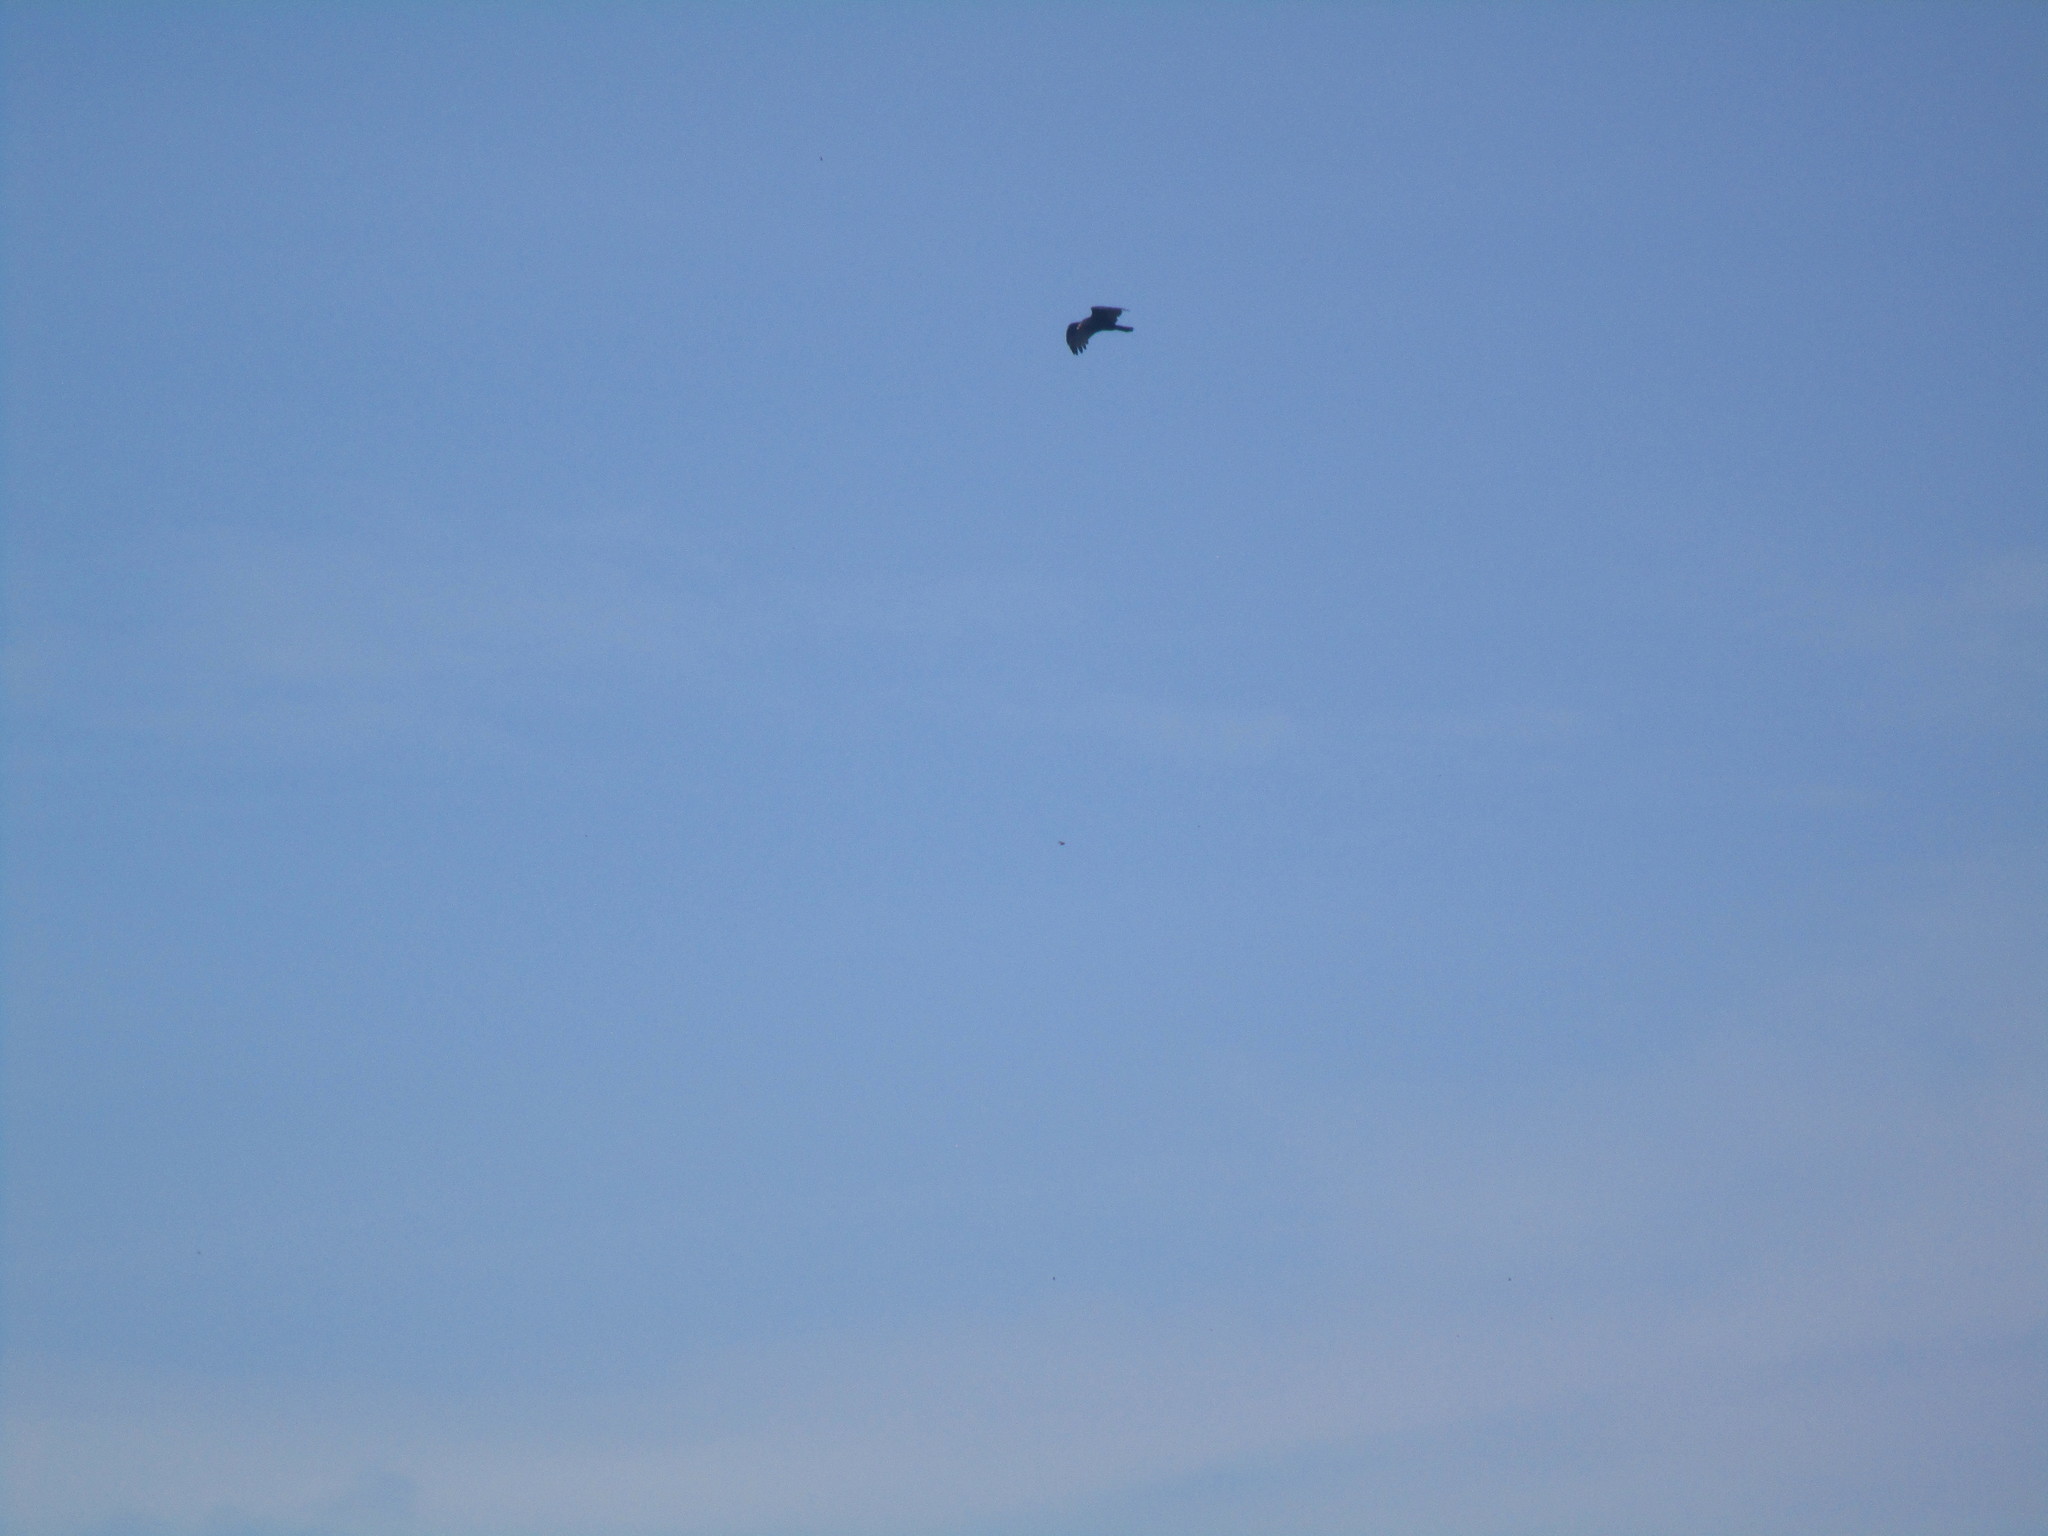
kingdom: Animalia
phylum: Chordata
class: Aves
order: Accipitriformes
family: Cathartidae
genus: Cathartes
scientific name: Cathartes aura
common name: Turkey vulture
